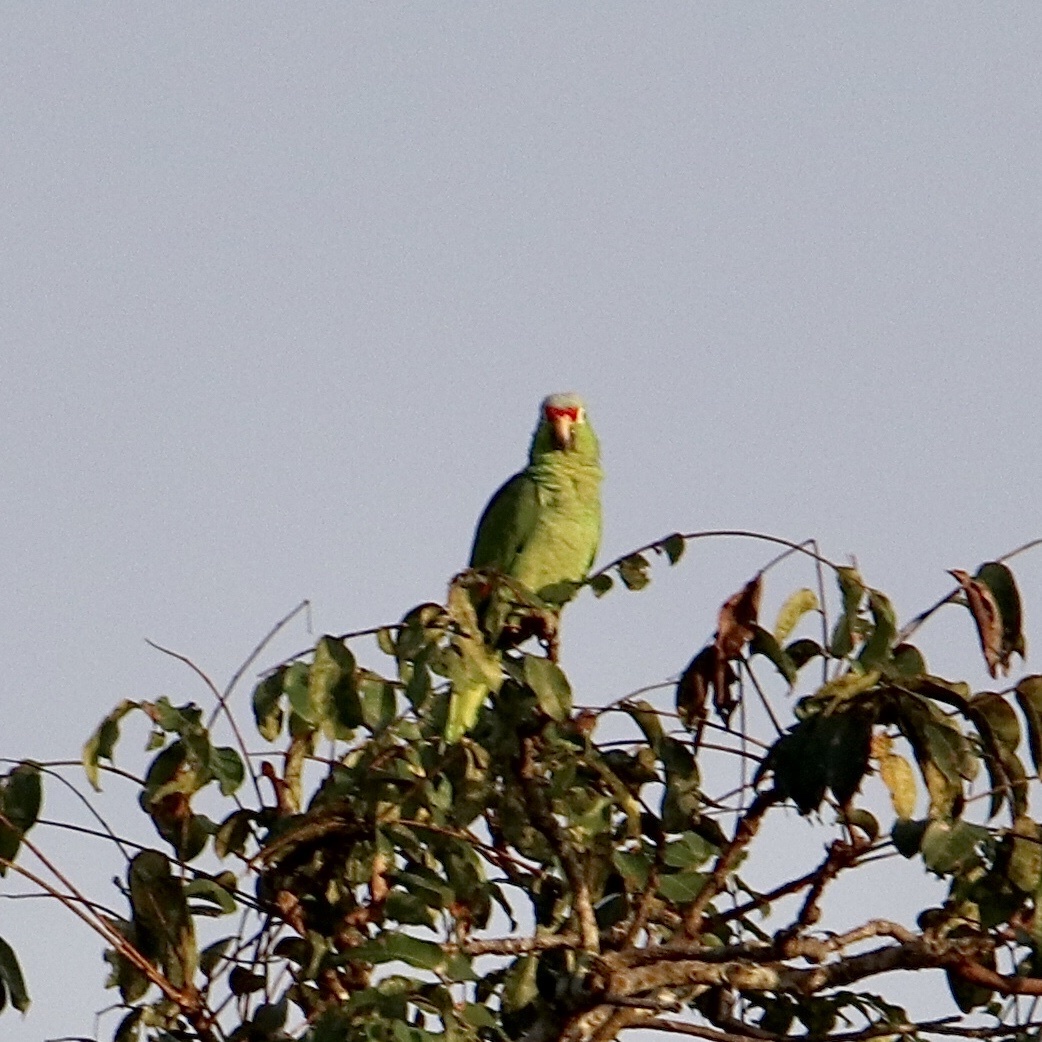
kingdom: Animalia
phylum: Chordata
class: Aves
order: Psittaciformes
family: Psittacidae
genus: Amazona
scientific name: Amazona autumnalis
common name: Red-lored amazon
